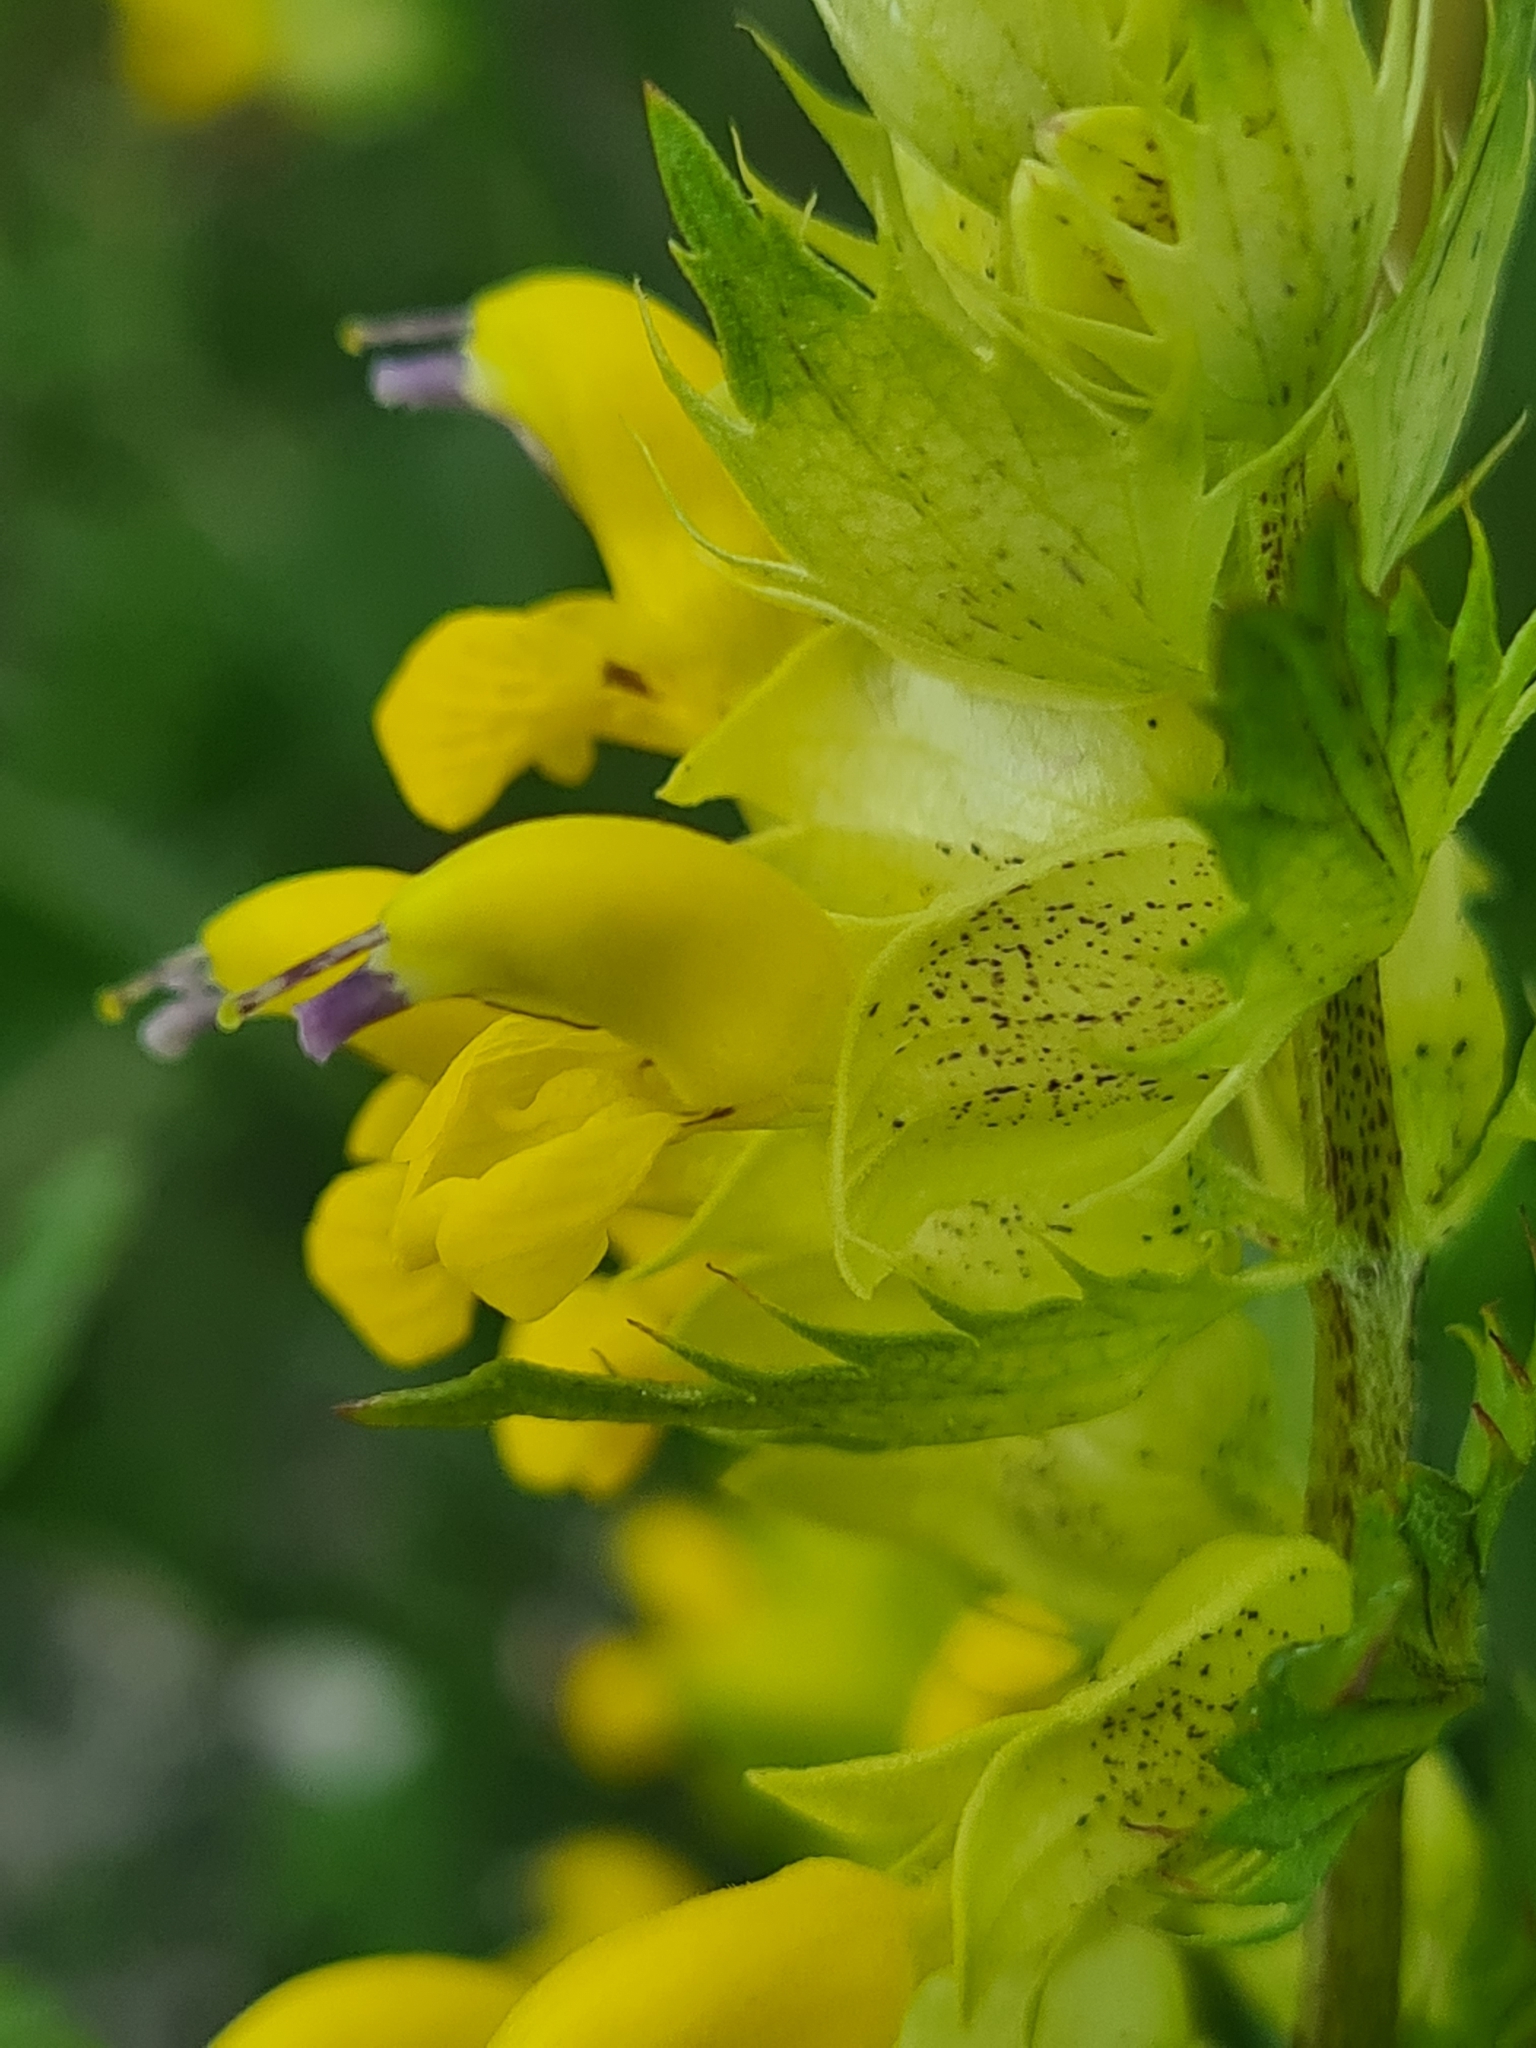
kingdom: Plantae
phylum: Tracheophyta
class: Magnoliopsida
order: Lamiales
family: Orobanchaceae
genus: Rhinanthus
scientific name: Rhinanthus glacialis
